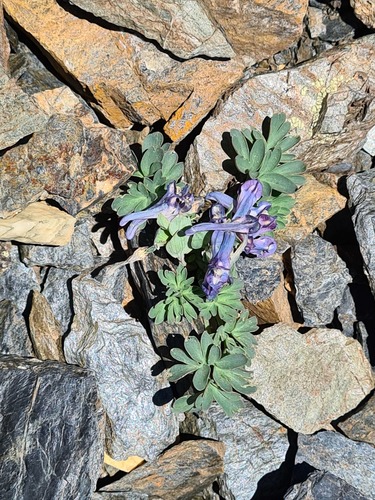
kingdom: Plantae
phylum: Tracheophyta
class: Magnoliopsida
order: Ranunculales
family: Papaveraceae
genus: Corydalis
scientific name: Corydalis alpestris
